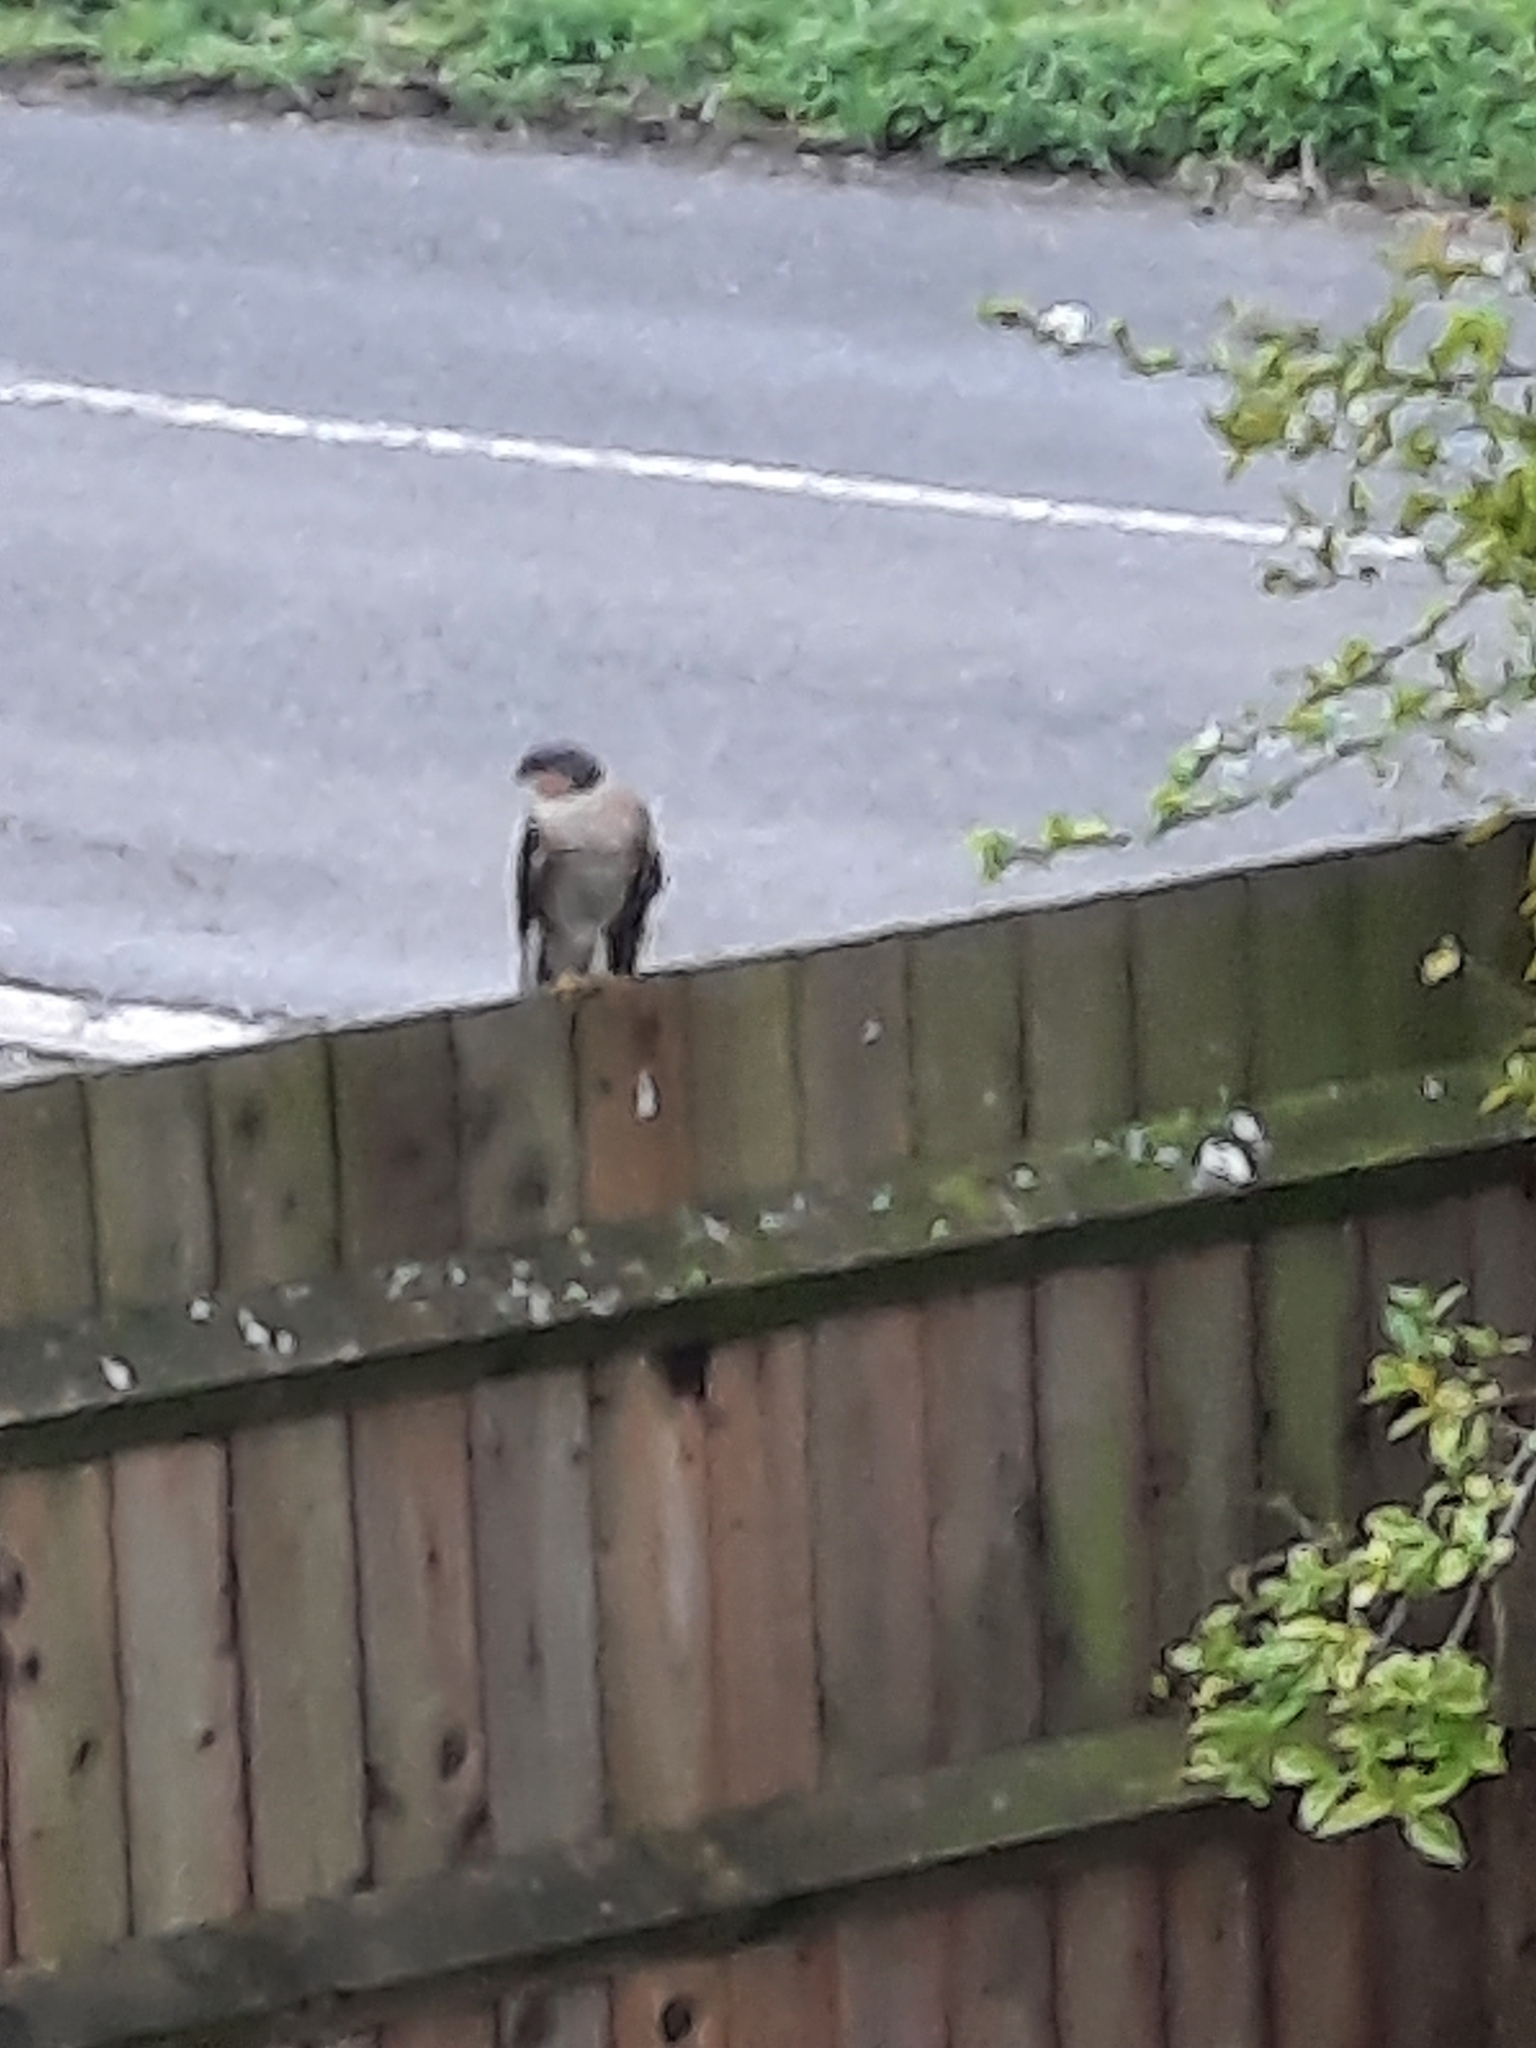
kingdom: Animalia
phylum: Chordata
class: Aves
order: Accipitriformes
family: Accipitridae
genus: Accipiter
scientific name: Accipiter nisus
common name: Eurasian sparrowhawk
